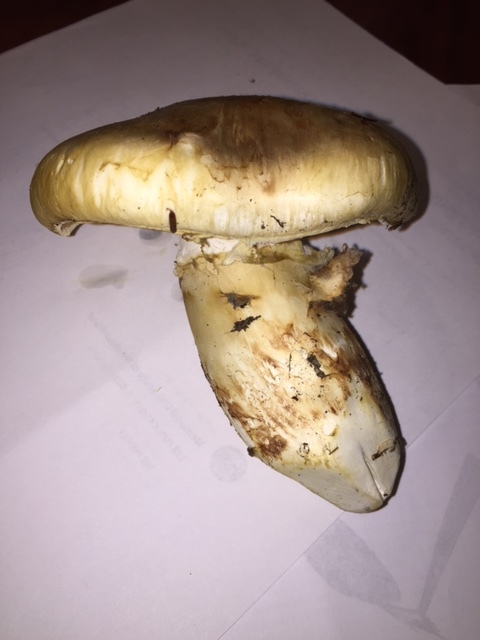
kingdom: Fungi
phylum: Basidiomycota
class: Agaricomycetes
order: Agaricales
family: Tricholomataceae
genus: Tricholoma
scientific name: Tricholoma magnivelare
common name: American matsutake
